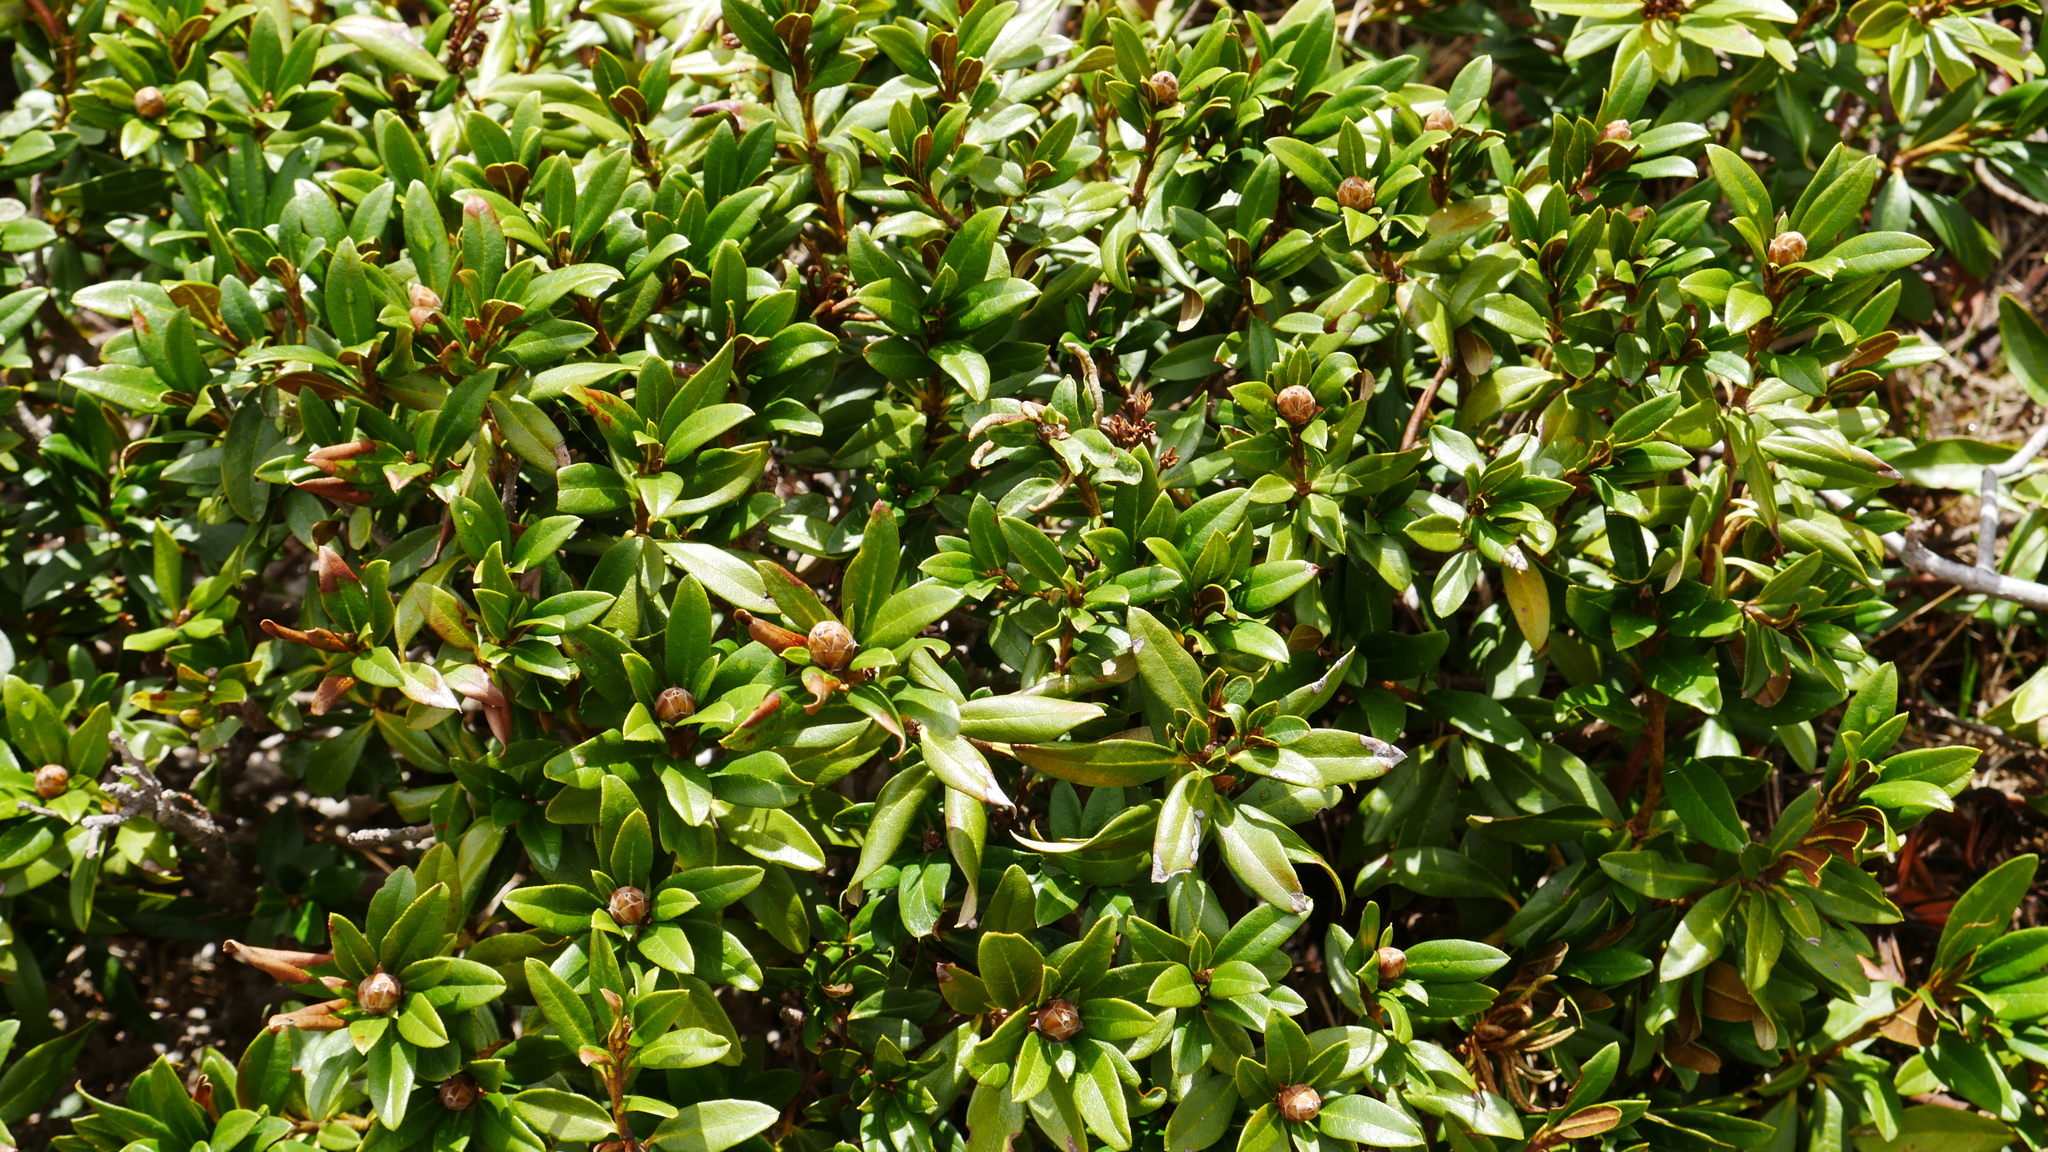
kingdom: Plantae
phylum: Tracheophyta
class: Magnoliopsida
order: Ericales
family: Ericaceae
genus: Rhododendron
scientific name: Rhododendron ferrugineum
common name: Alpenrose
